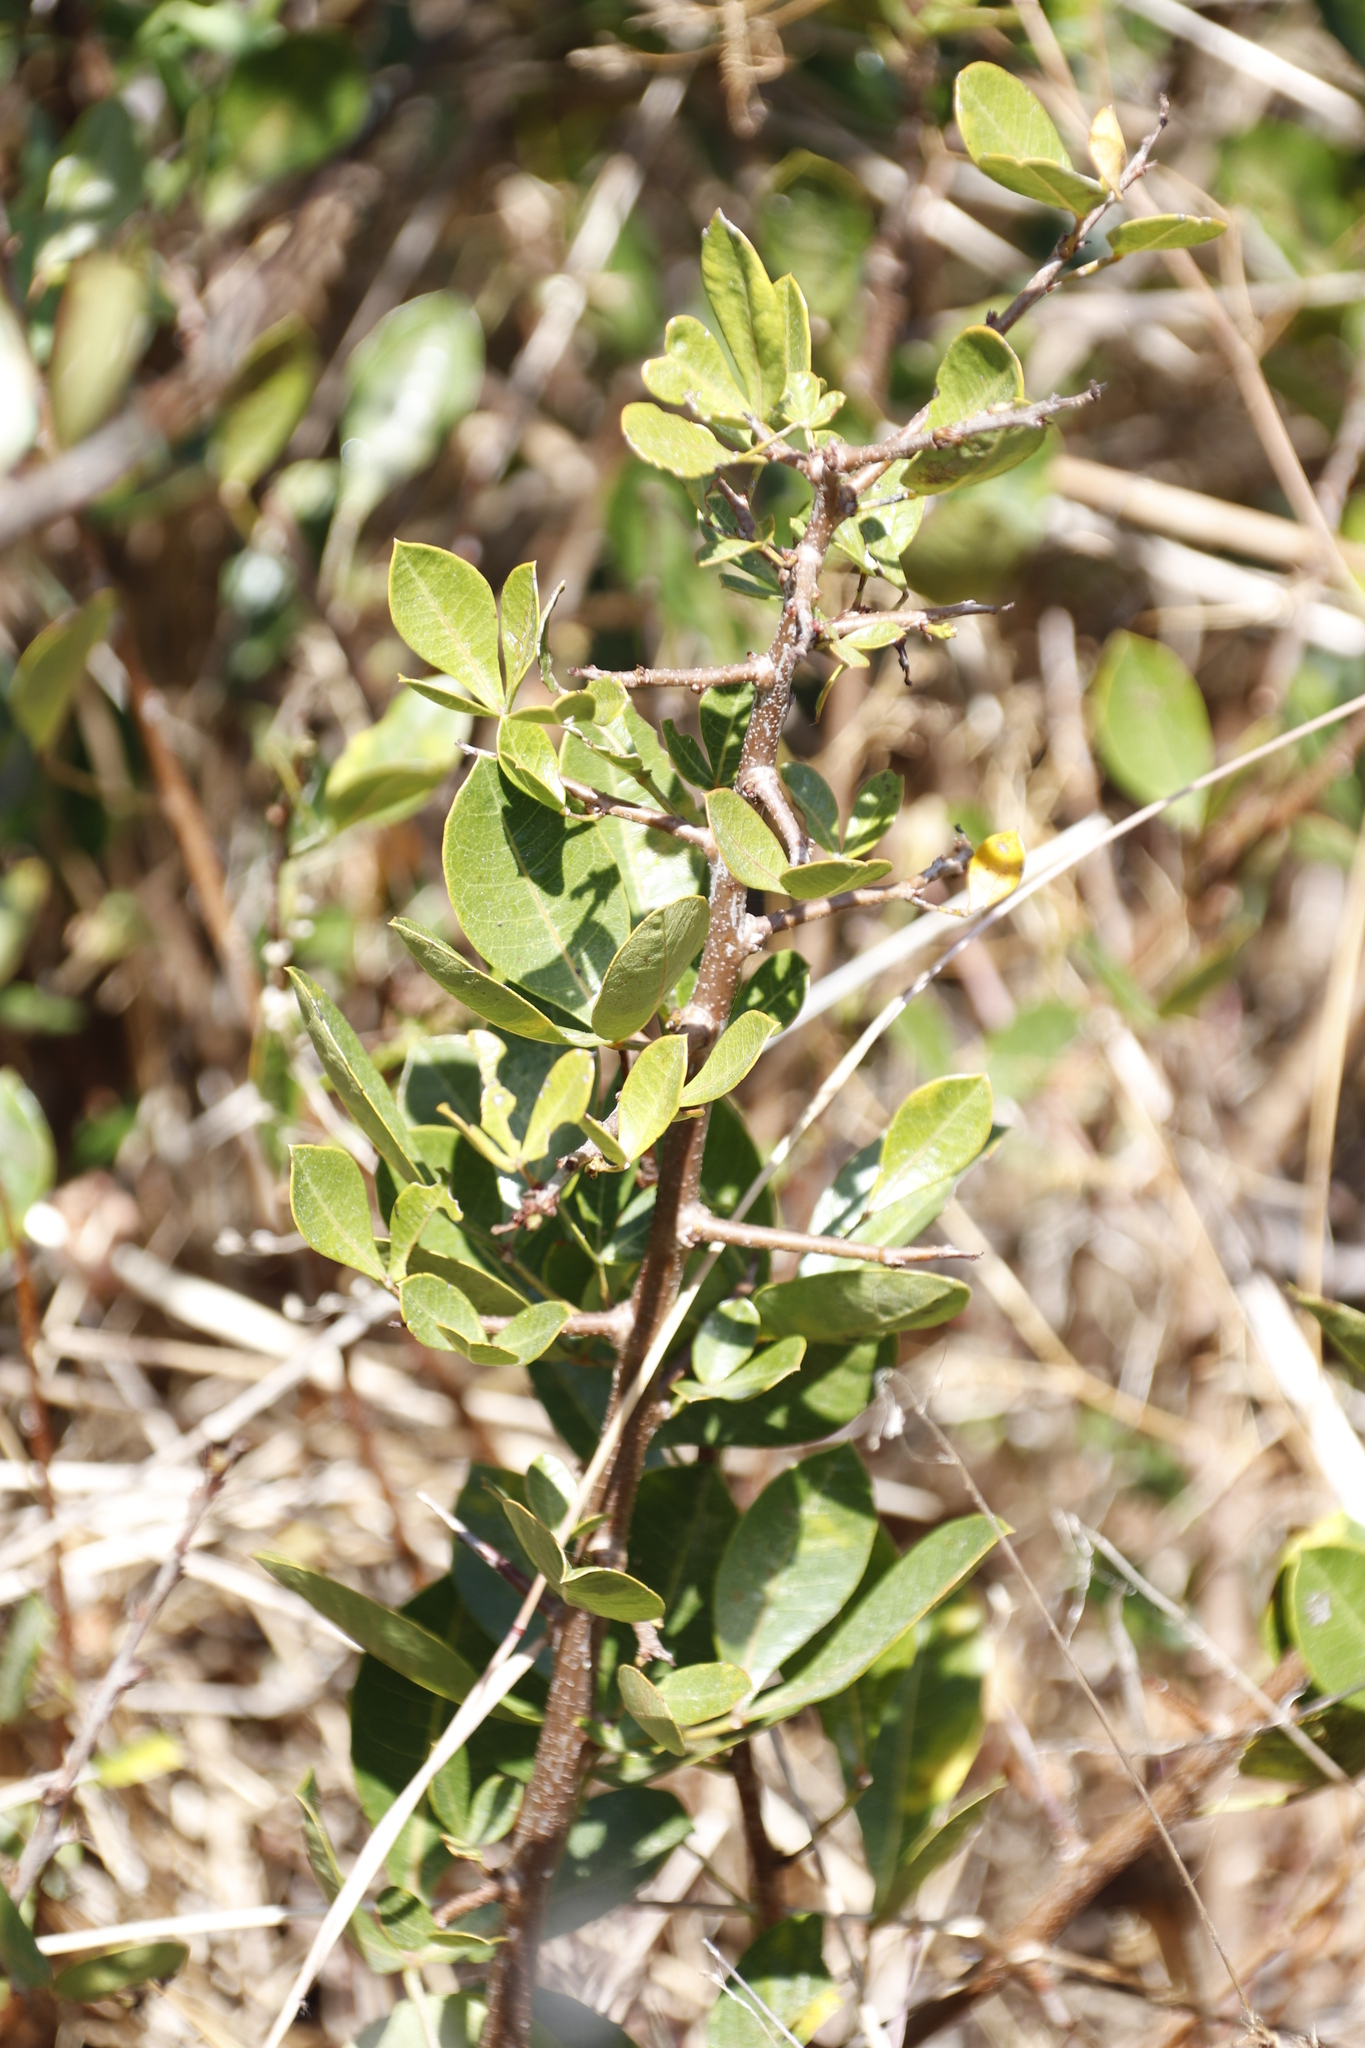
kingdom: Plantae
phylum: Tracheophyta
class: Magnoliopsida
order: Sapindales
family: Anacardiaceae
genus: Searsia
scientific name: Searsia laevigata
